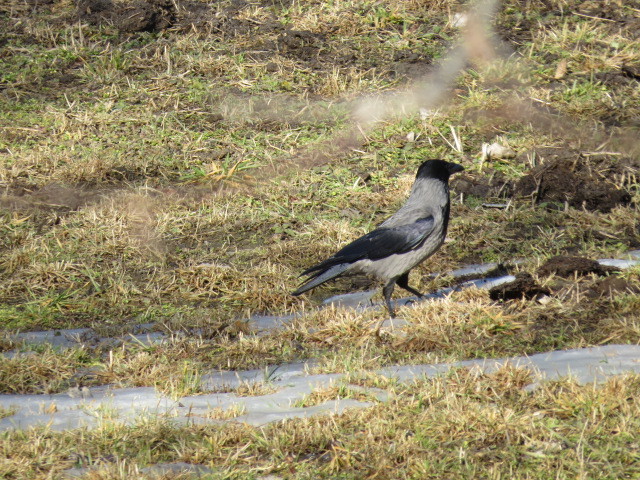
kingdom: Animalia
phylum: Chordata
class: Aves
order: Passeriformes
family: Corvidae
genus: Corvus
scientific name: Corvus cornix
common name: Hooded crow
